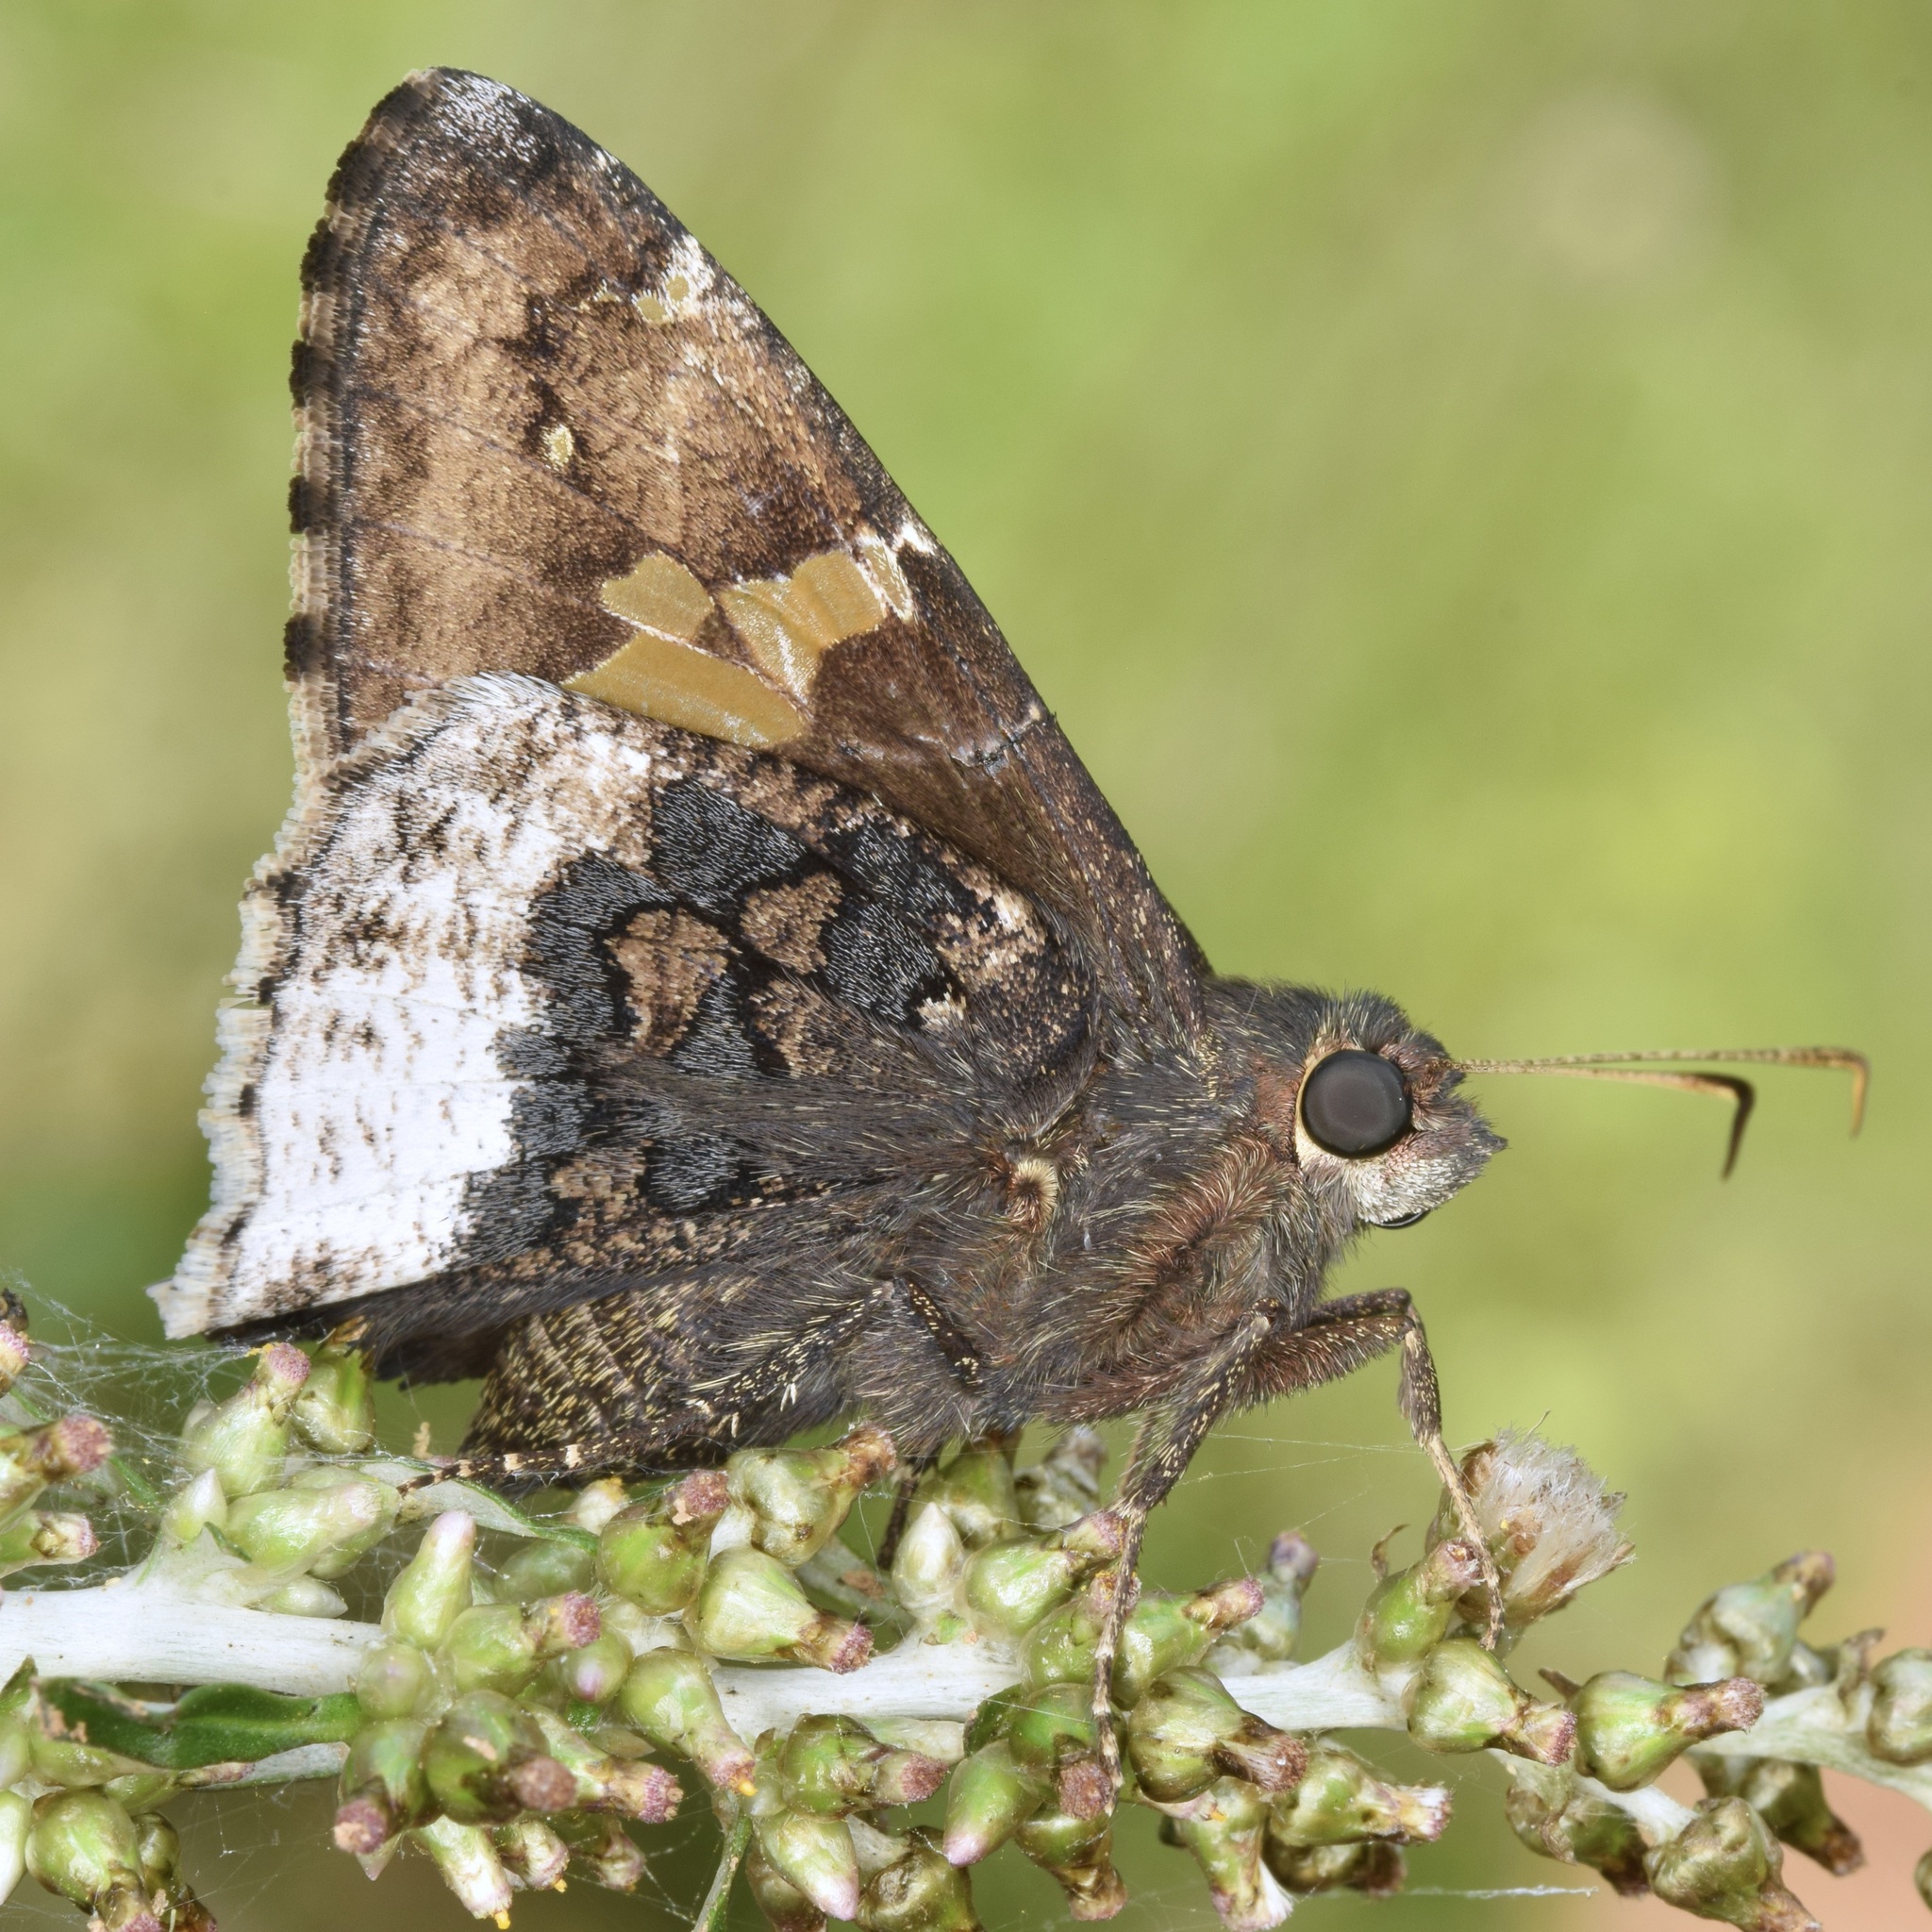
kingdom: Animalia
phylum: Arthropoda
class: Insecta
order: Lepidoptera
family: Hesperiidae
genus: Thorybes
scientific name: Thorybes lyciades
